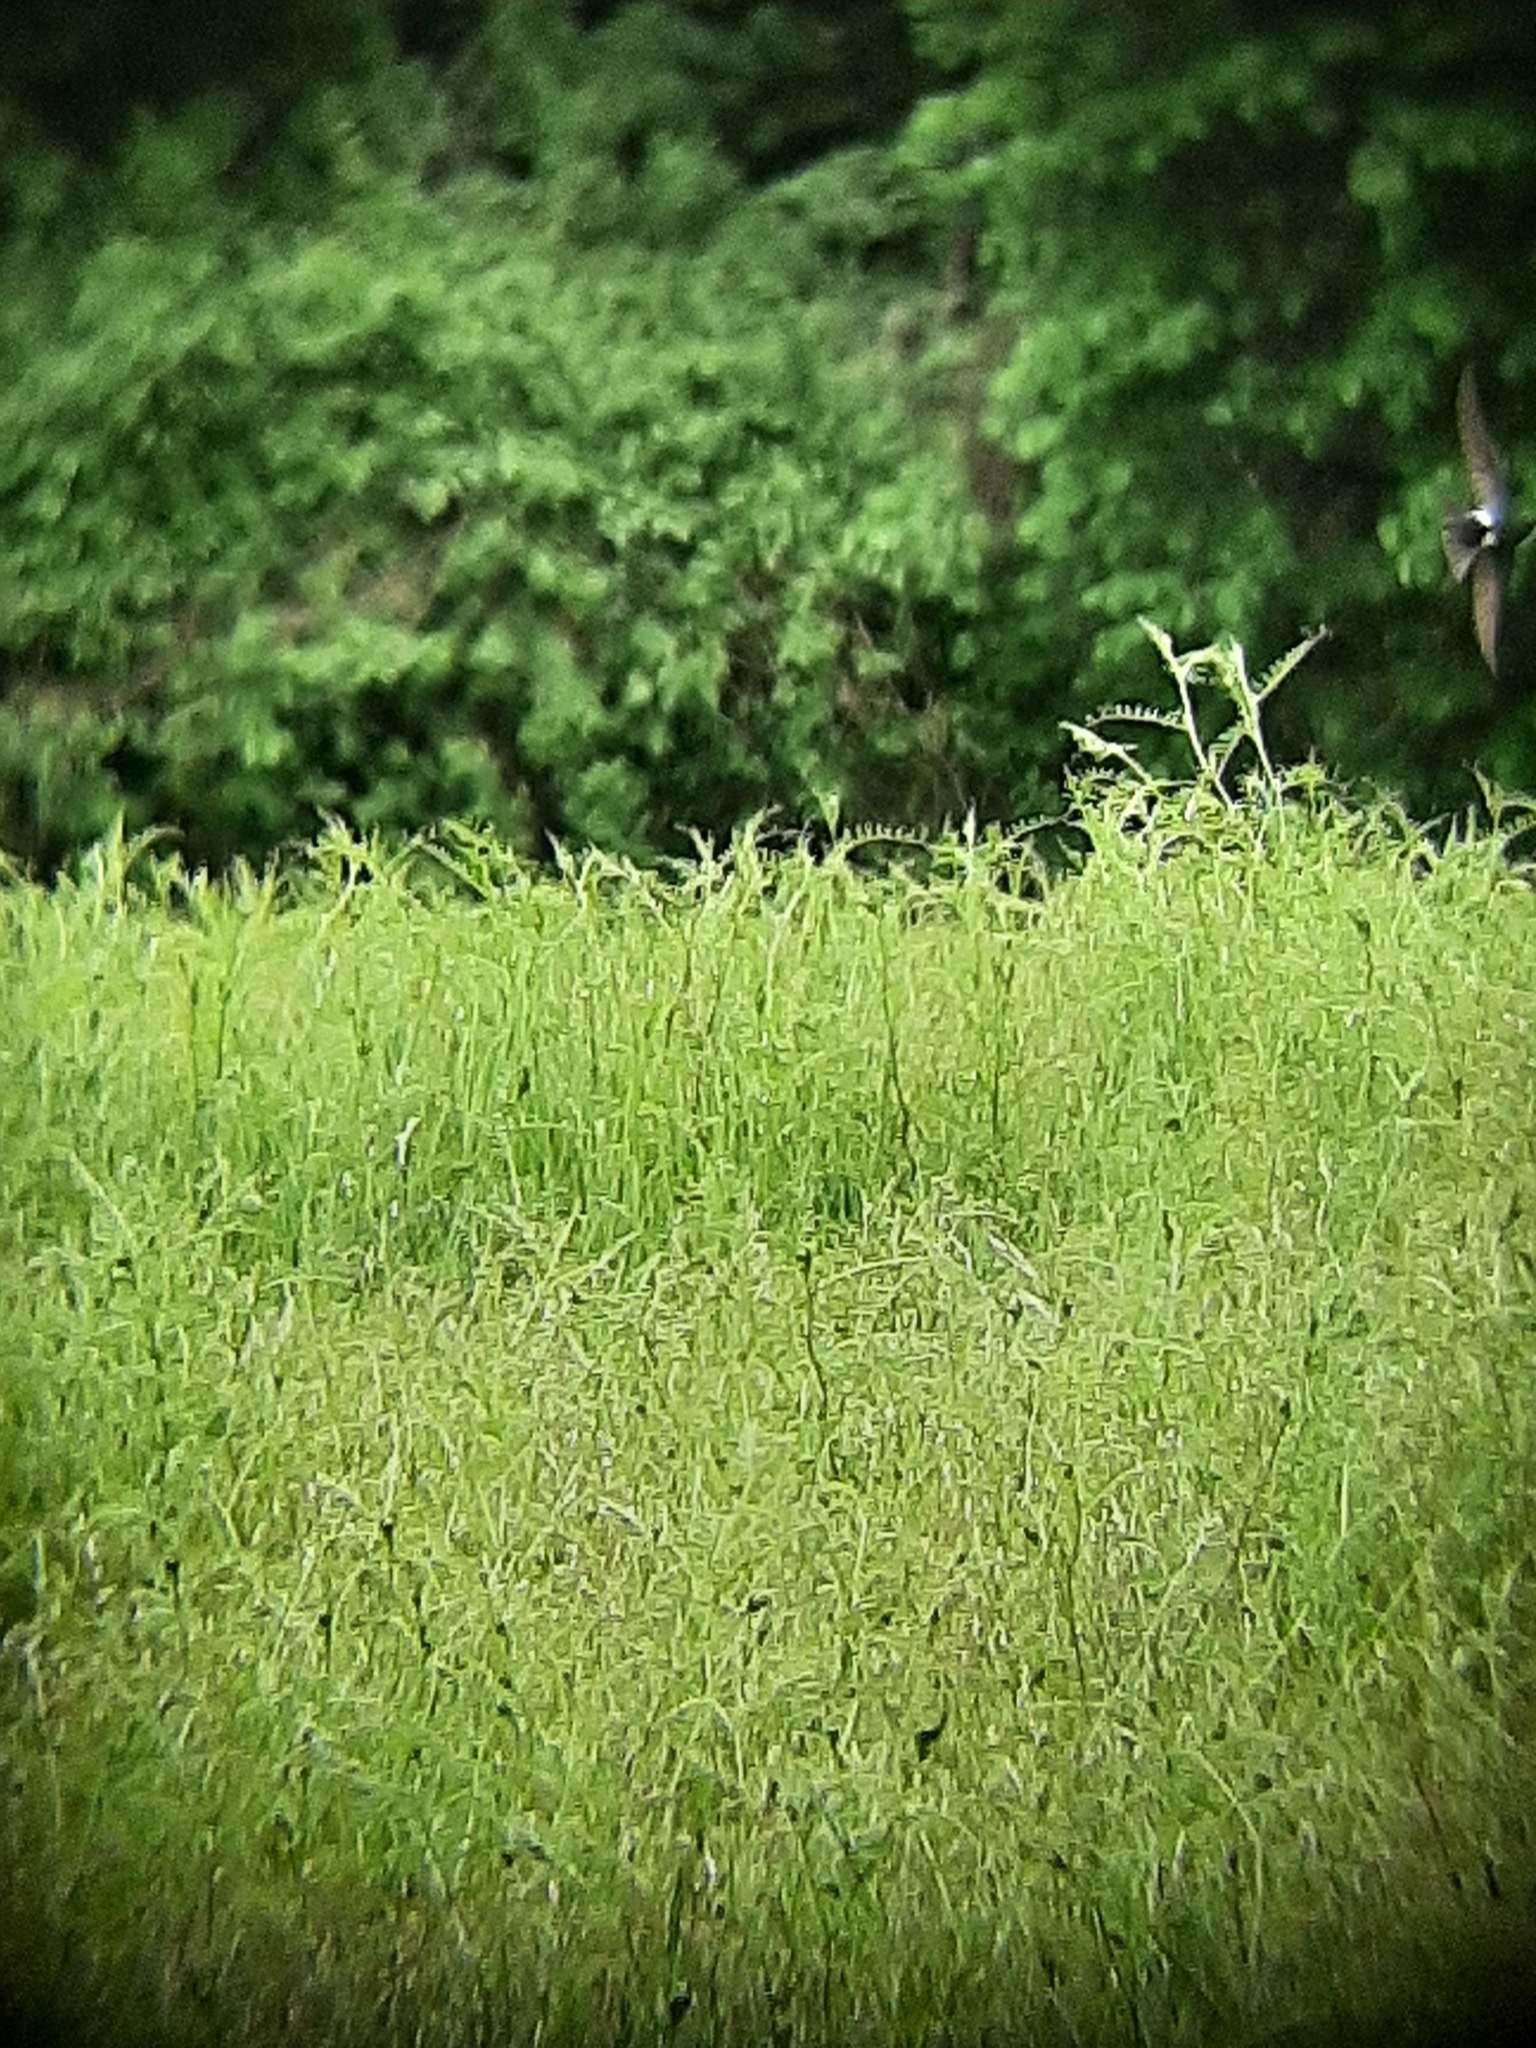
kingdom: Animalia
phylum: Chordata
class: Aves
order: Passeriformes
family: Hirundinidae
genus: Tachycineta
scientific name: Tachycineta thalassina
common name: Violet-green swallow
